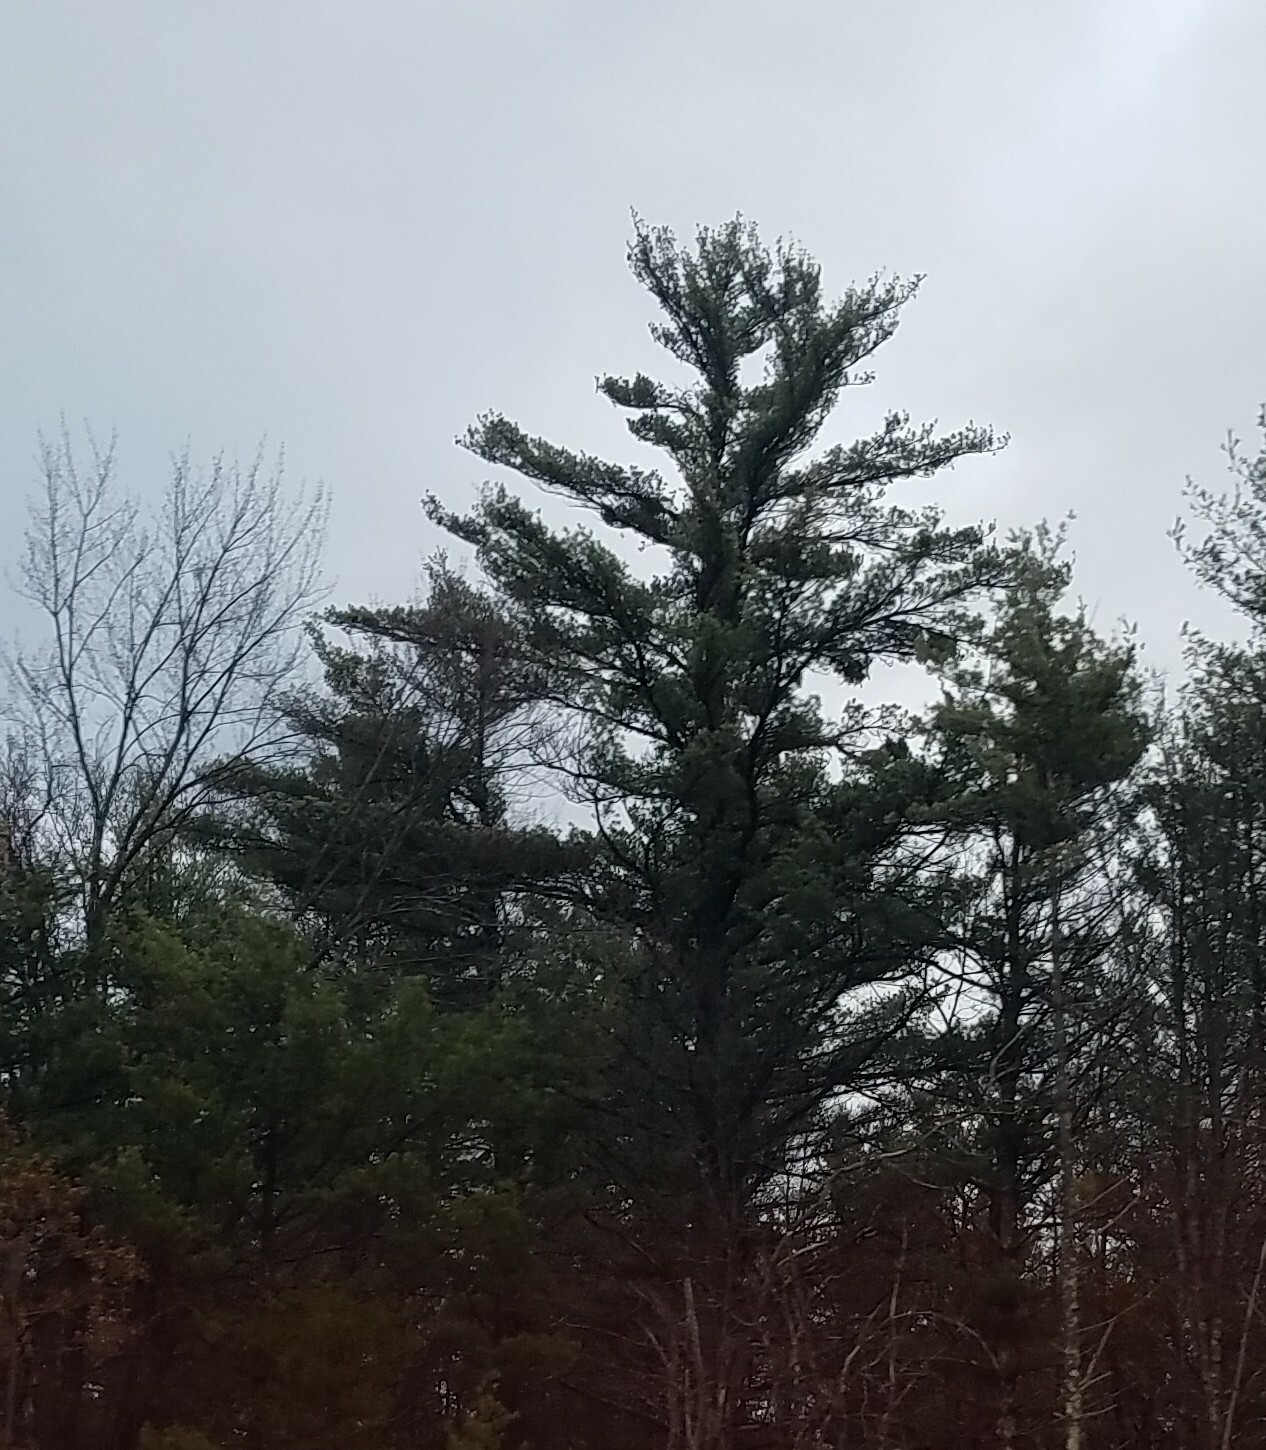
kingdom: Plantae
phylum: Tracheophyta
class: Pinopsida
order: Pinales
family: Pinaceae
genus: Pinus
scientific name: Pinus strobus
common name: Weymouth pine
